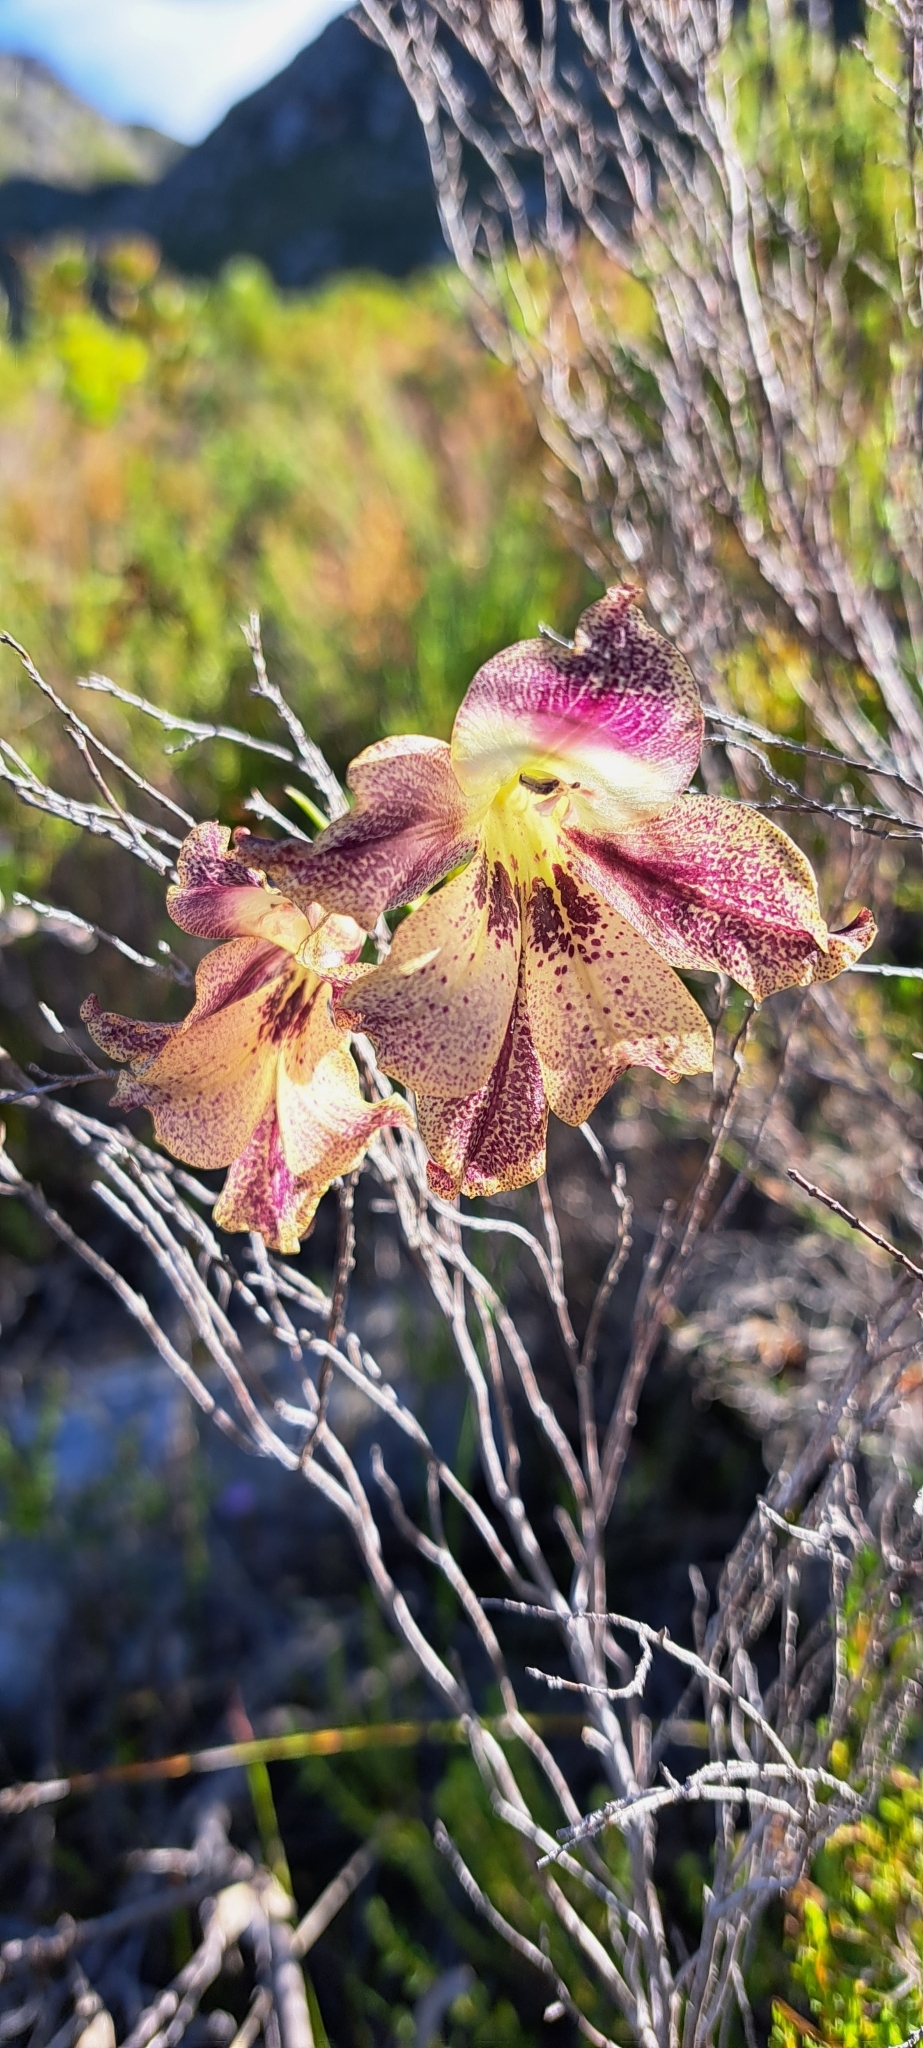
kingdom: Plantae
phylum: Tracheophyta
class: Liliopsida
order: Asparagales
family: Iridaceae
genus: Gladiolus
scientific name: Gladiolus maculatus
